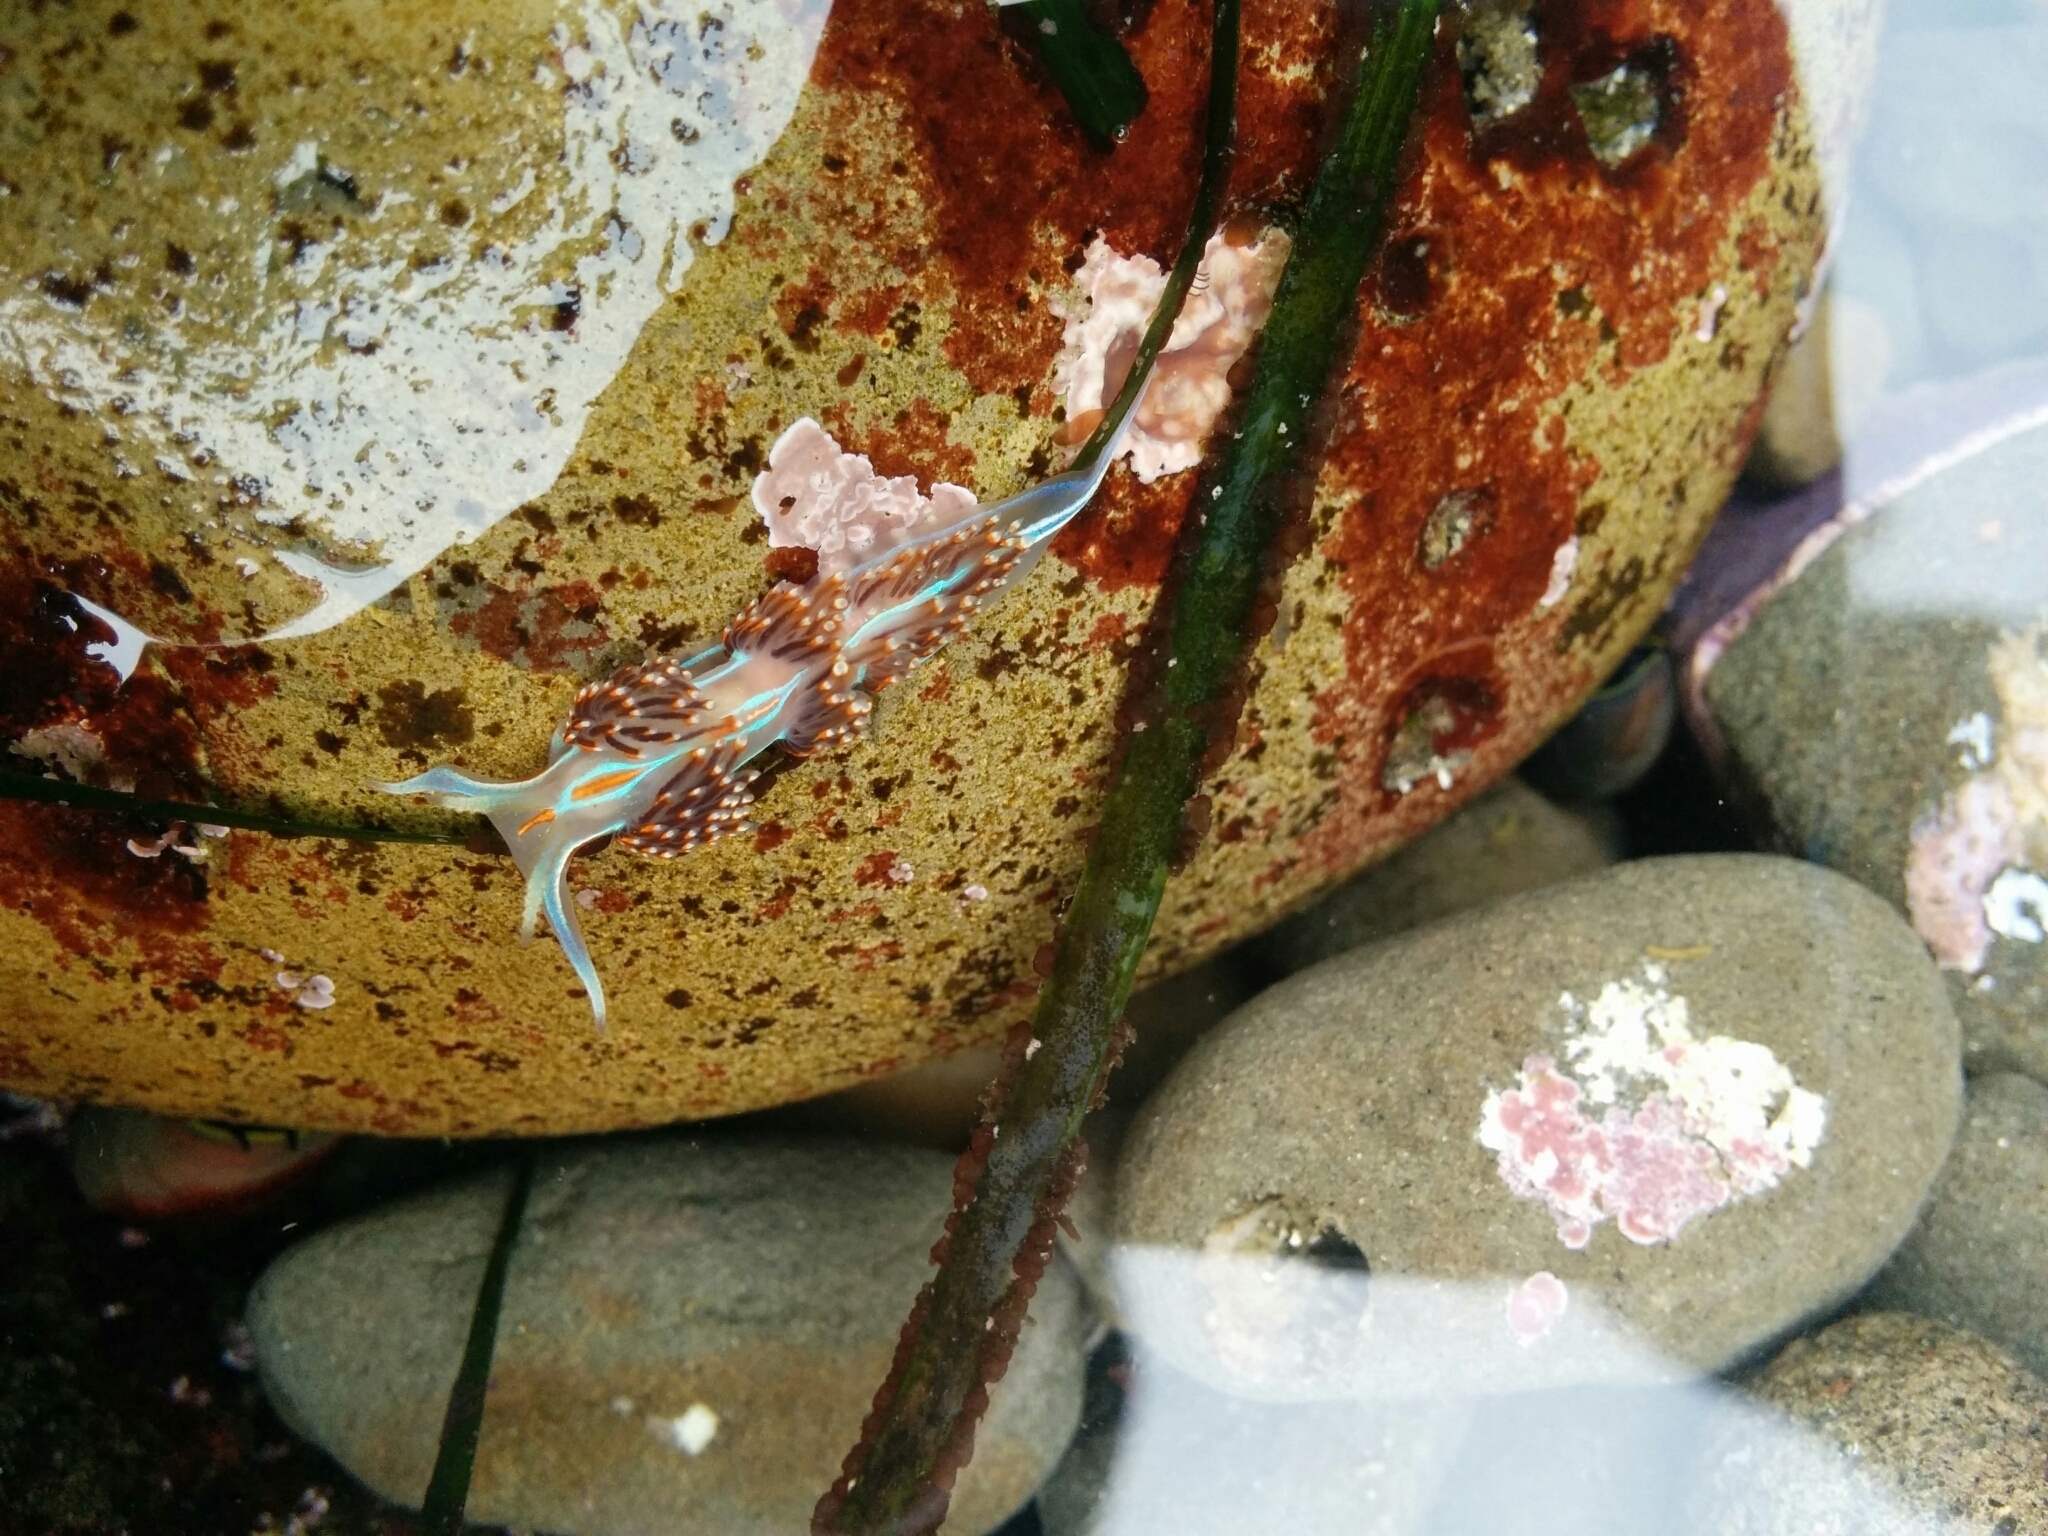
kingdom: Animalia
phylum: Mollusca
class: Gastropoda
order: Nudibranchia
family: Myrrhinidae
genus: Hermissenda
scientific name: Hermissenda opalescens
